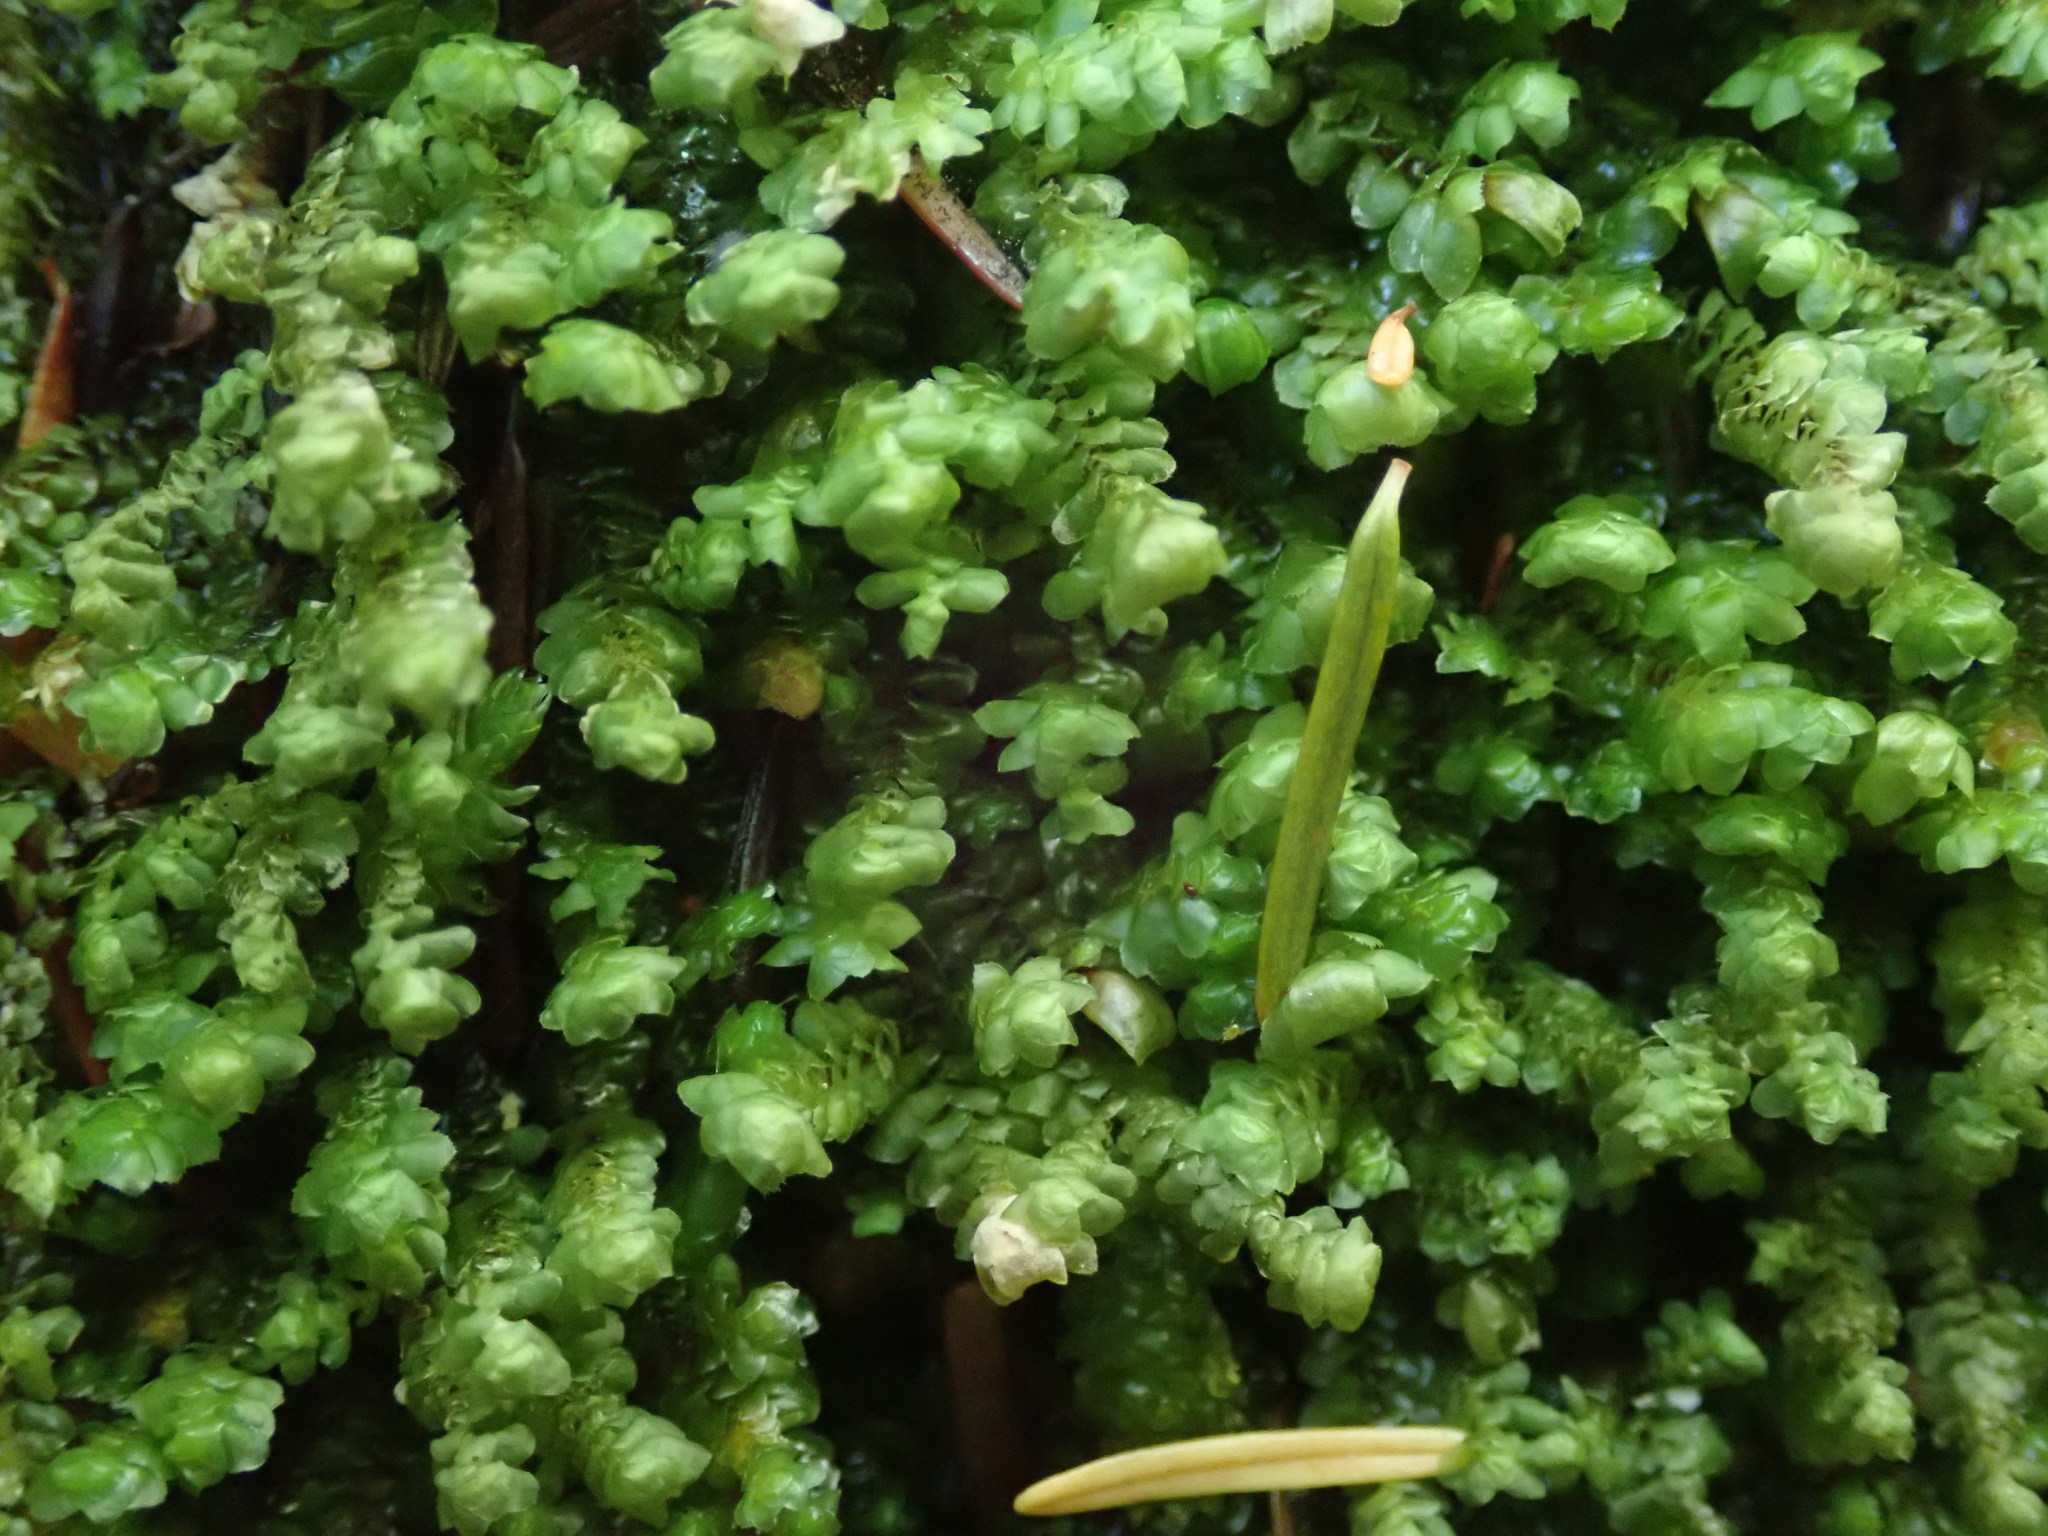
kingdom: Plantae
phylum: Marchantiophyta
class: Jungermanniopsida
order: Jungermanniales
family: Scapaniaceae
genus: Scapania
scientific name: Scapania bolanderi
